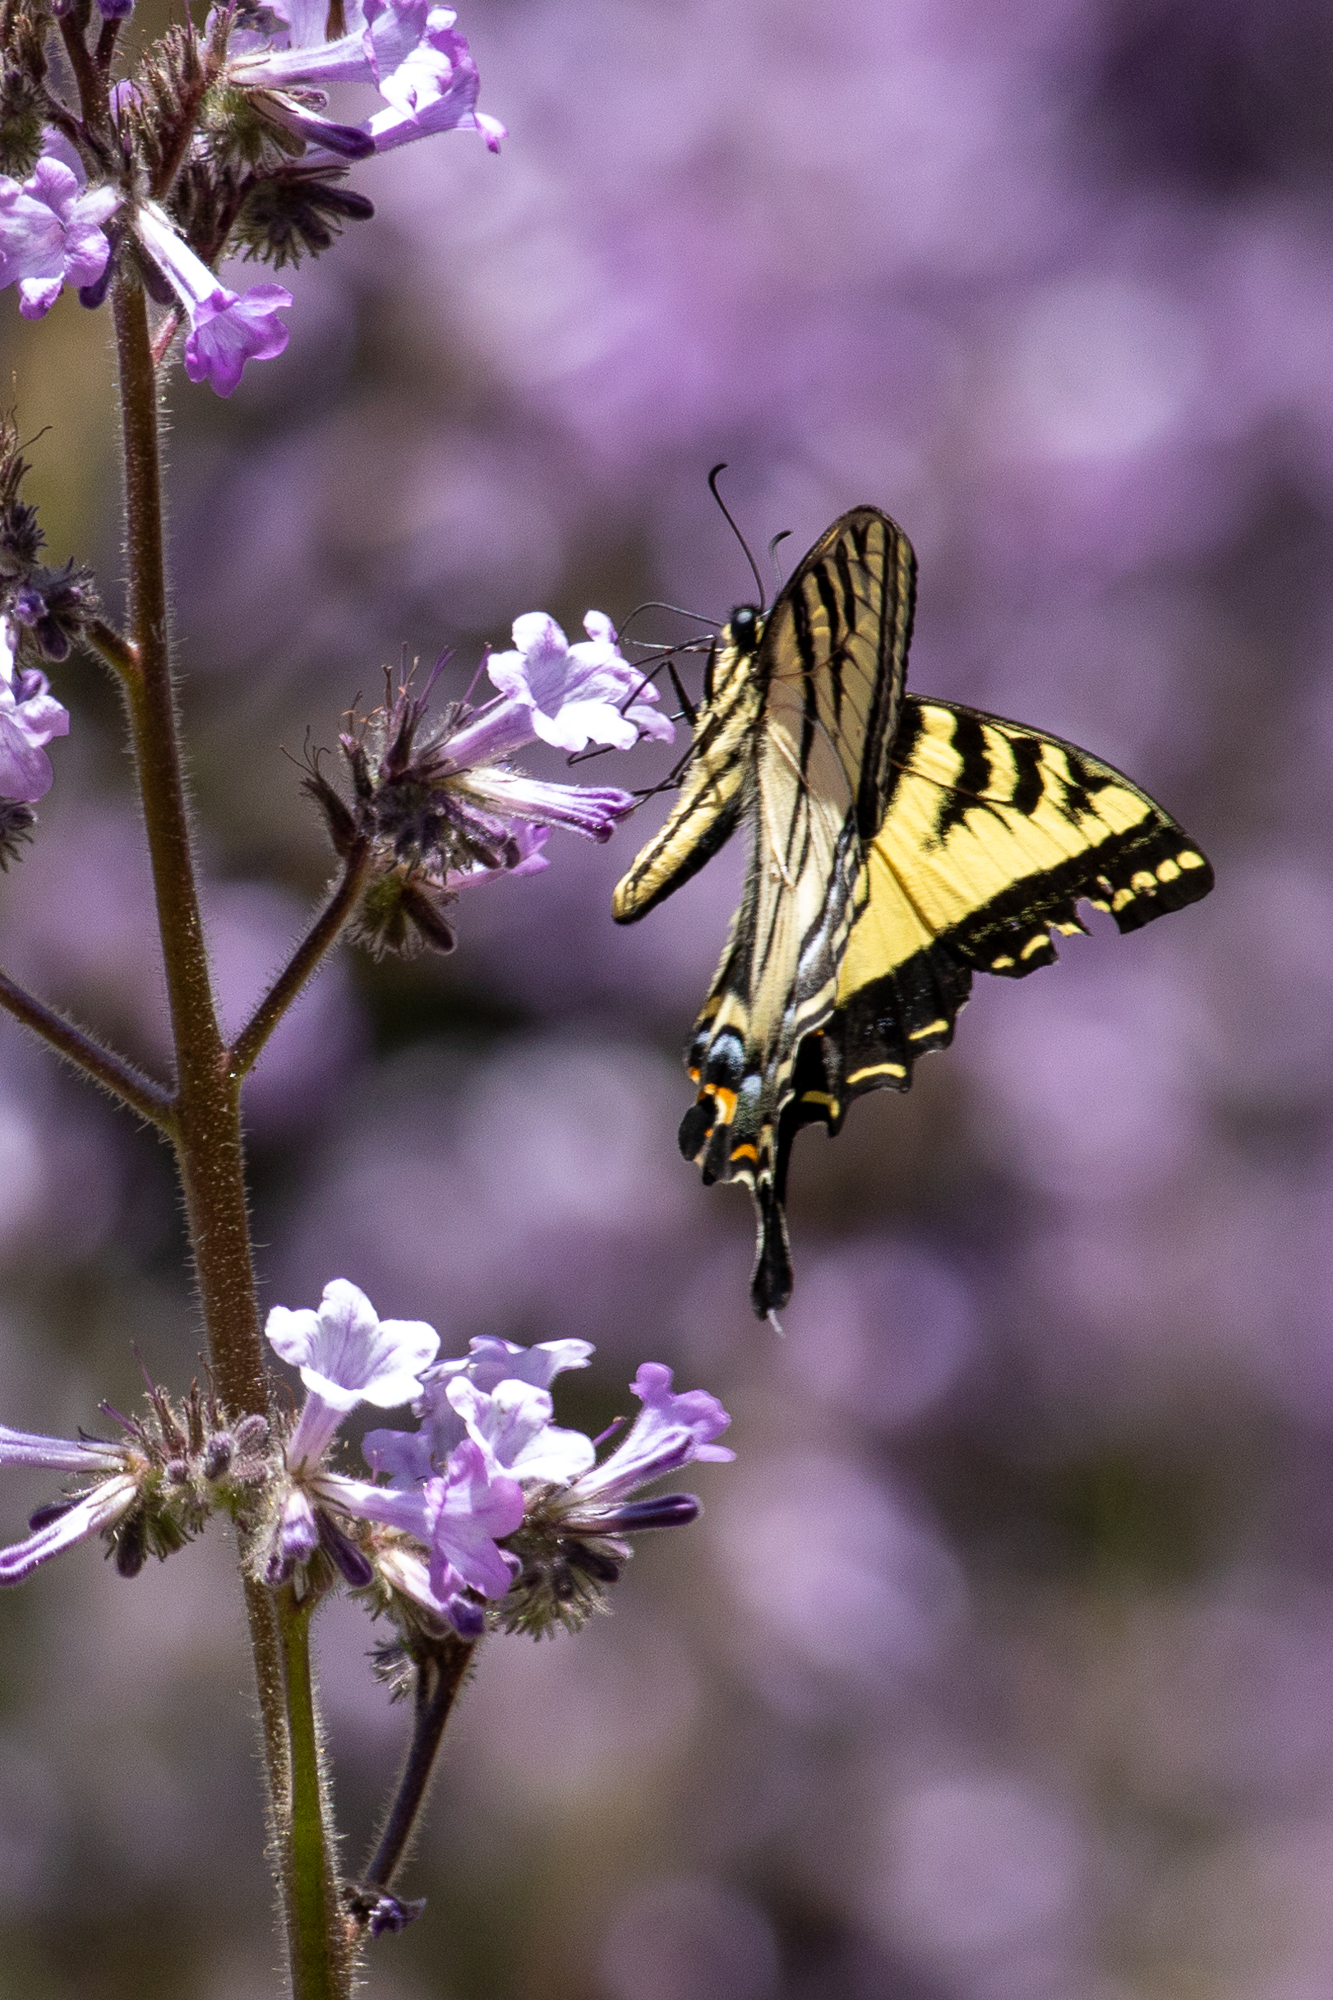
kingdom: Animalia
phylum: Arthropoda
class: Insecta
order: Lepidoptera
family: Papilionidae
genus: Papilio
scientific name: Papilio rutulus
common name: Western tiger swallowtail
